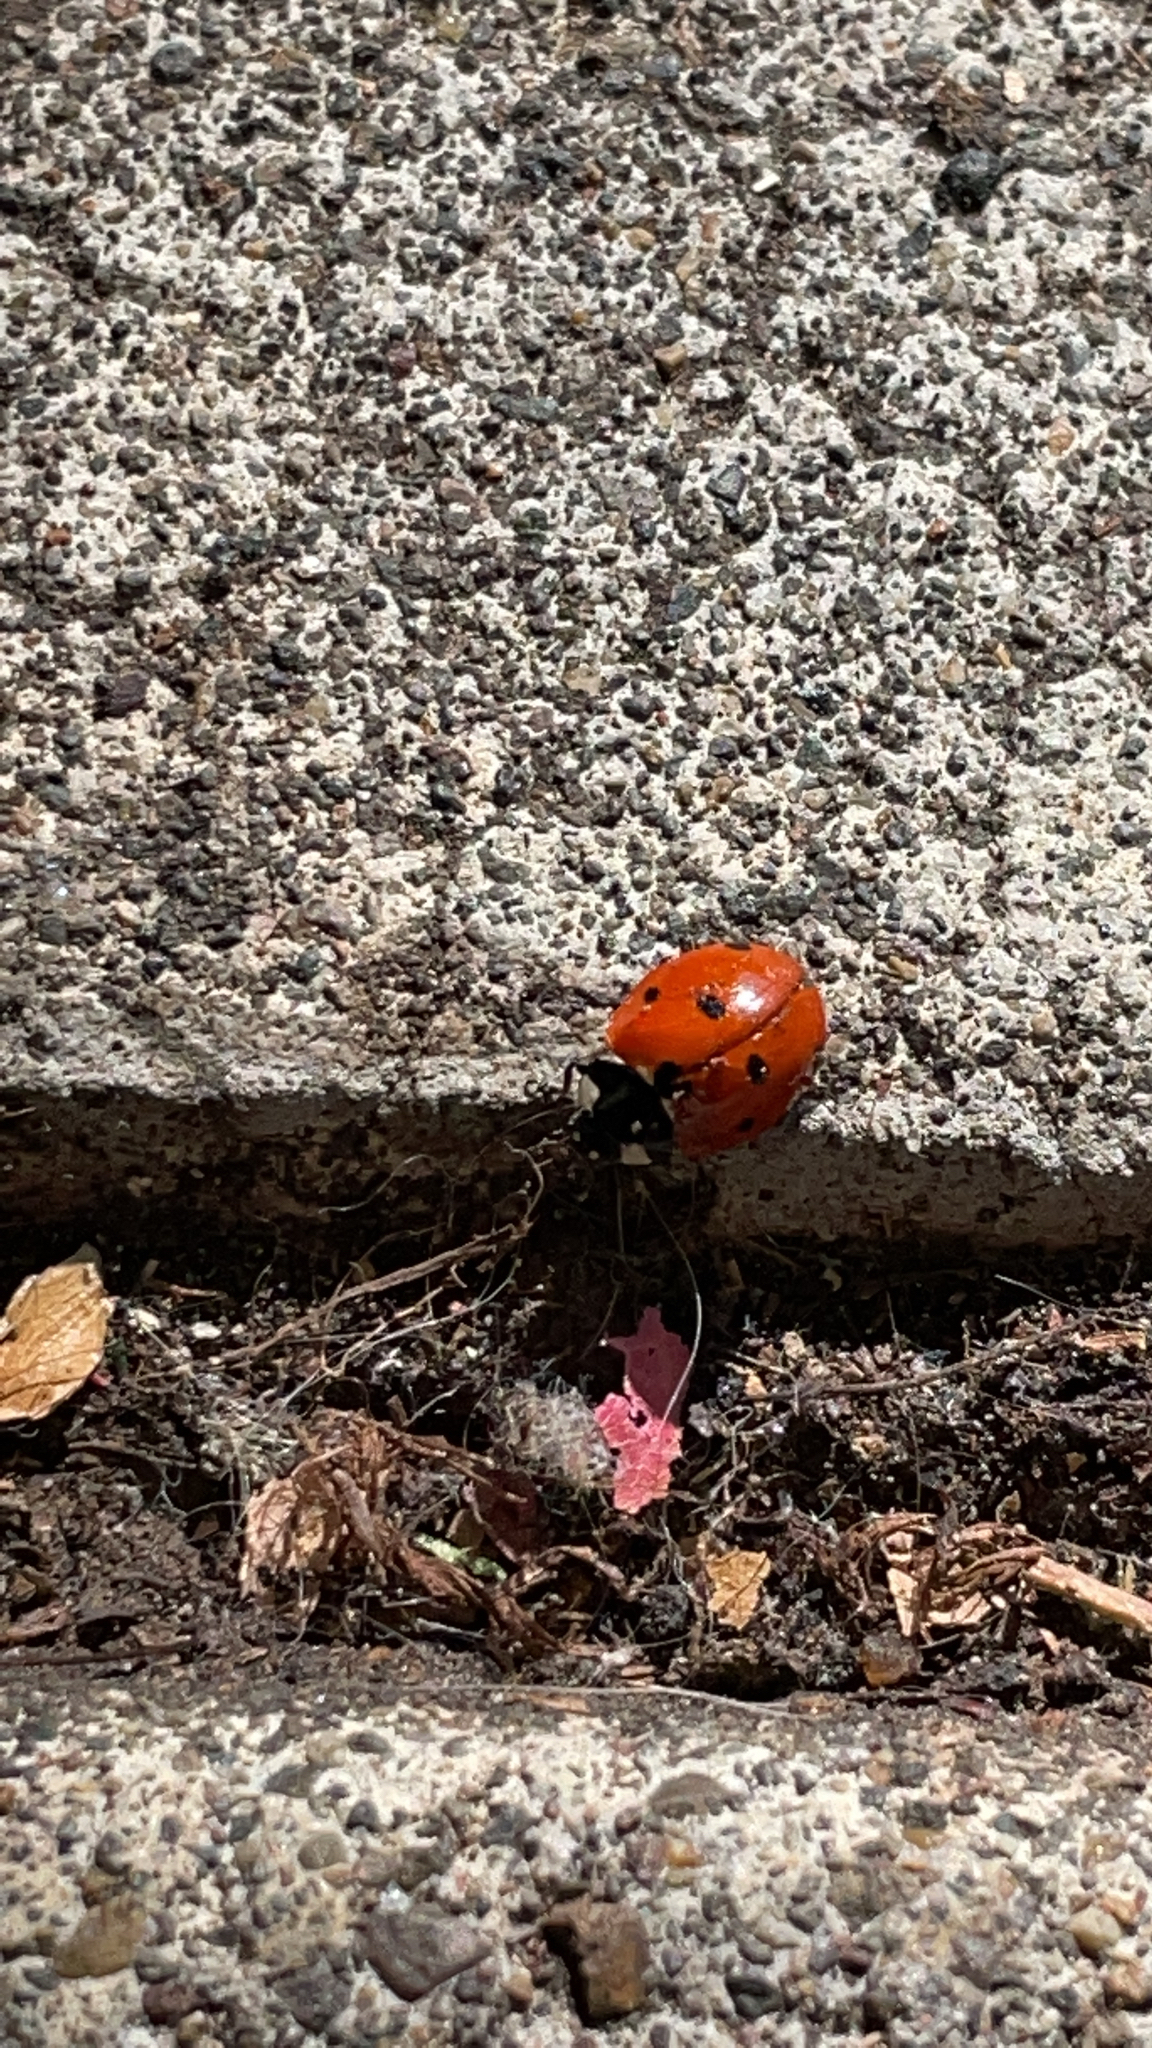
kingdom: Animalia
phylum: Arthropoda
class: Insecta
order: Coleoptera
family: Coccinellidae
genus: Coccinella
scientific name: Coccinella septempunctata
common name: Sevenspotted lady beetle
